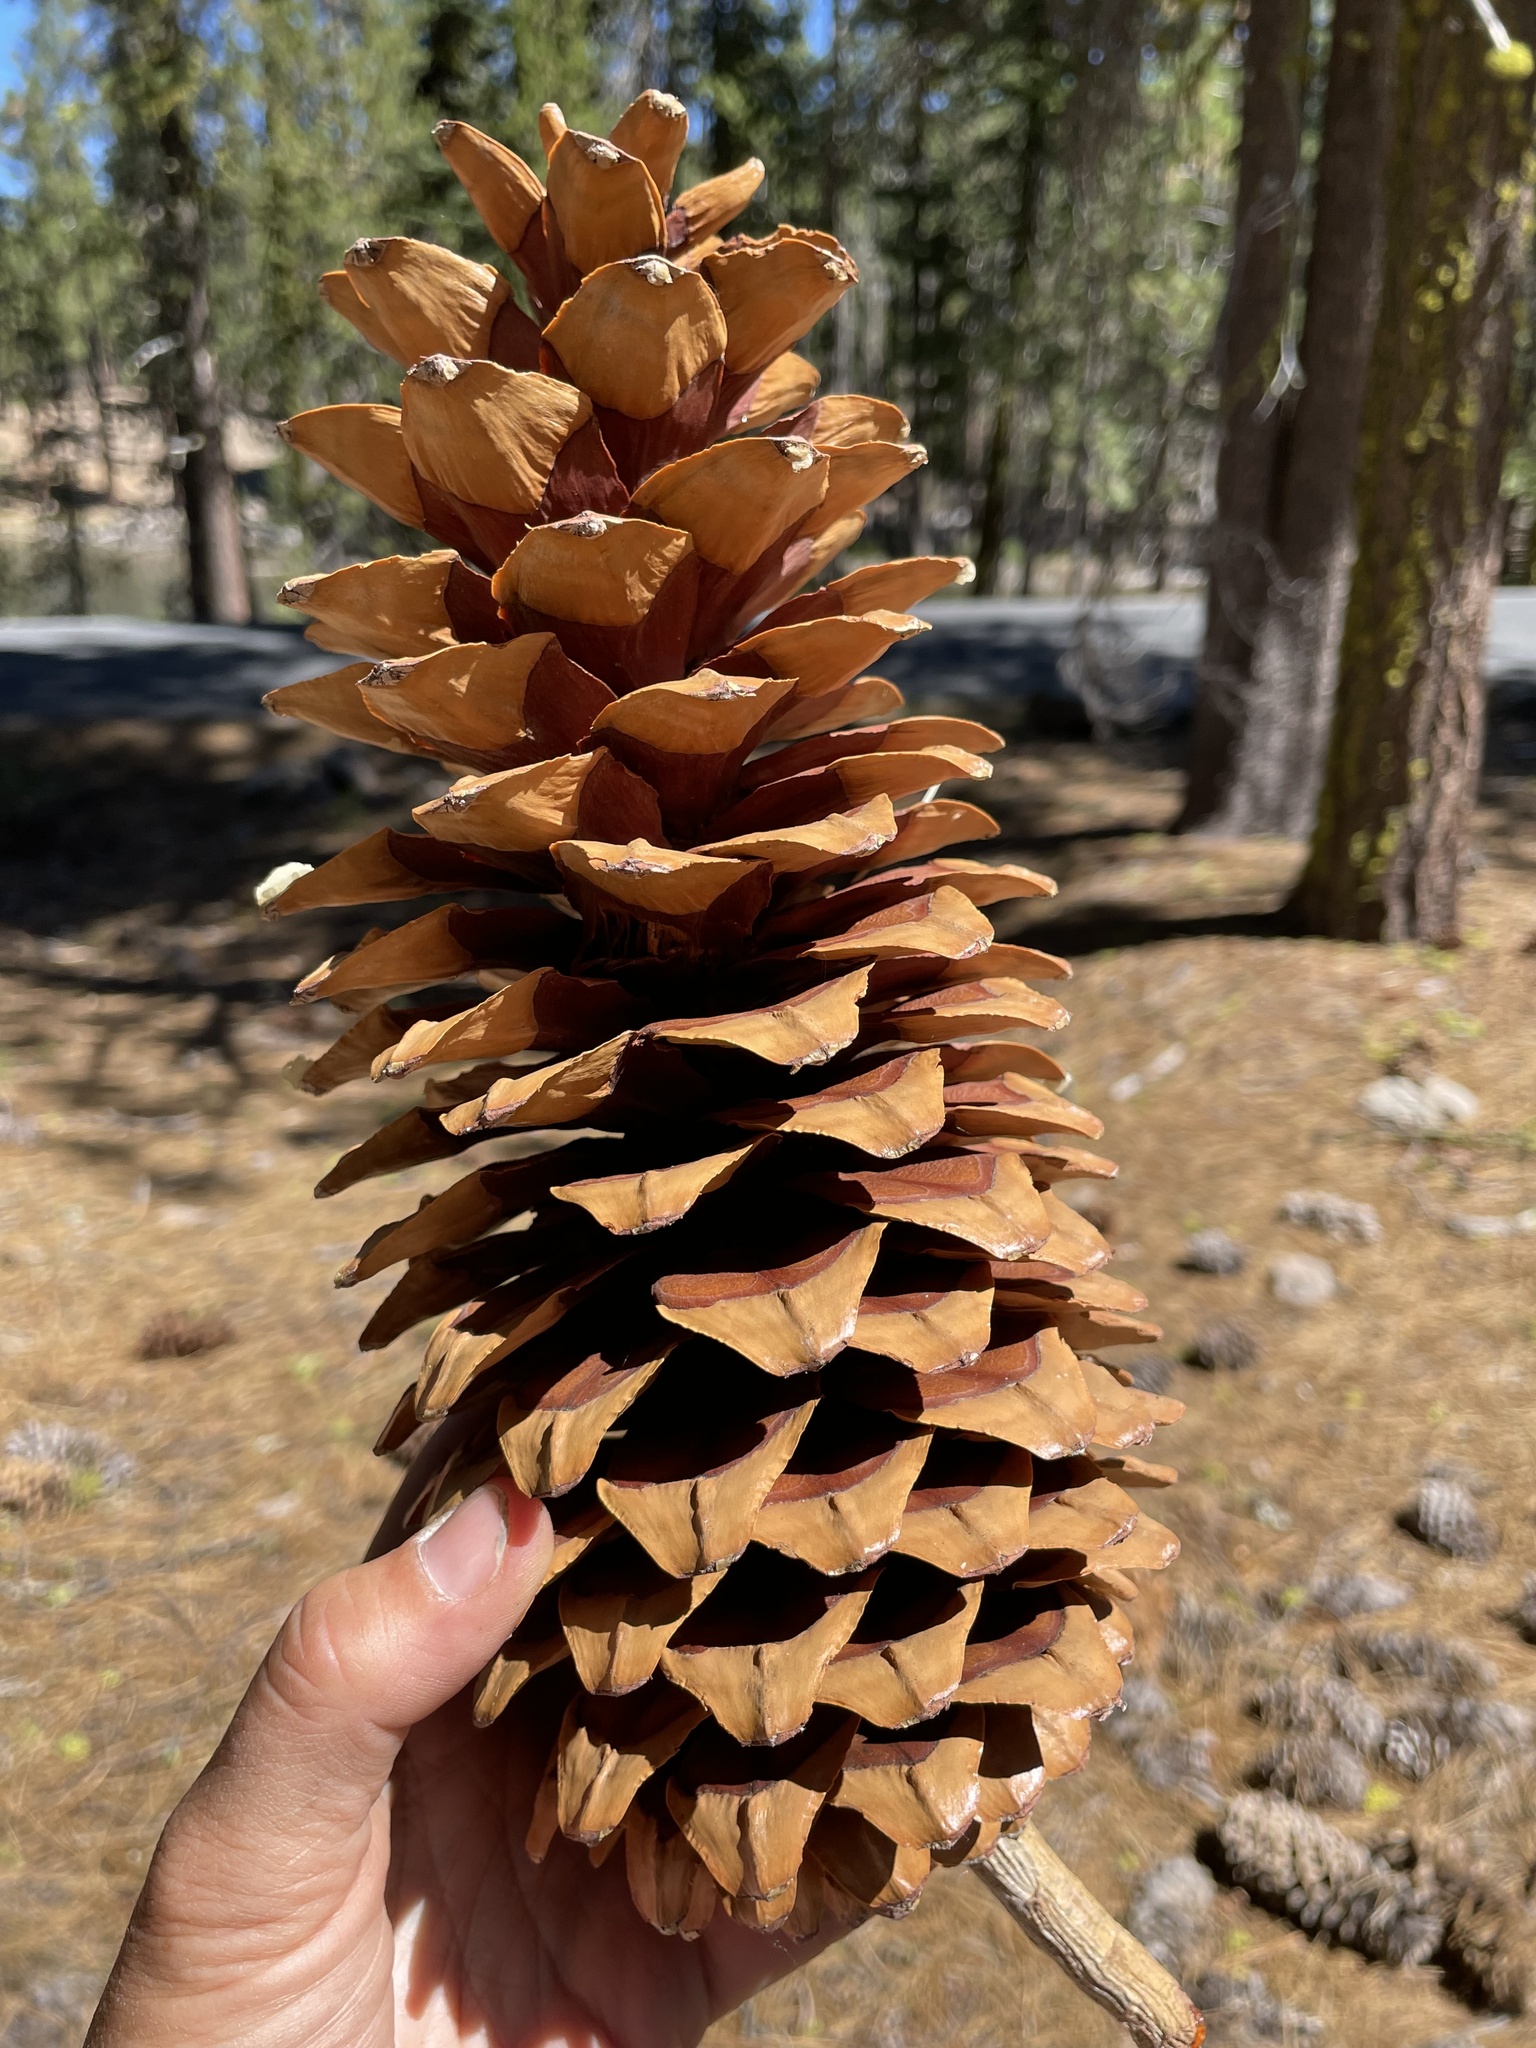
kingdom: Plantae
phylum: Tracheophyta
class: Pinopsida
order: Pinales
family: Pinaceae
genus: Pinus
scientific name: Pinus lambertiana
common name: Sugar pine
